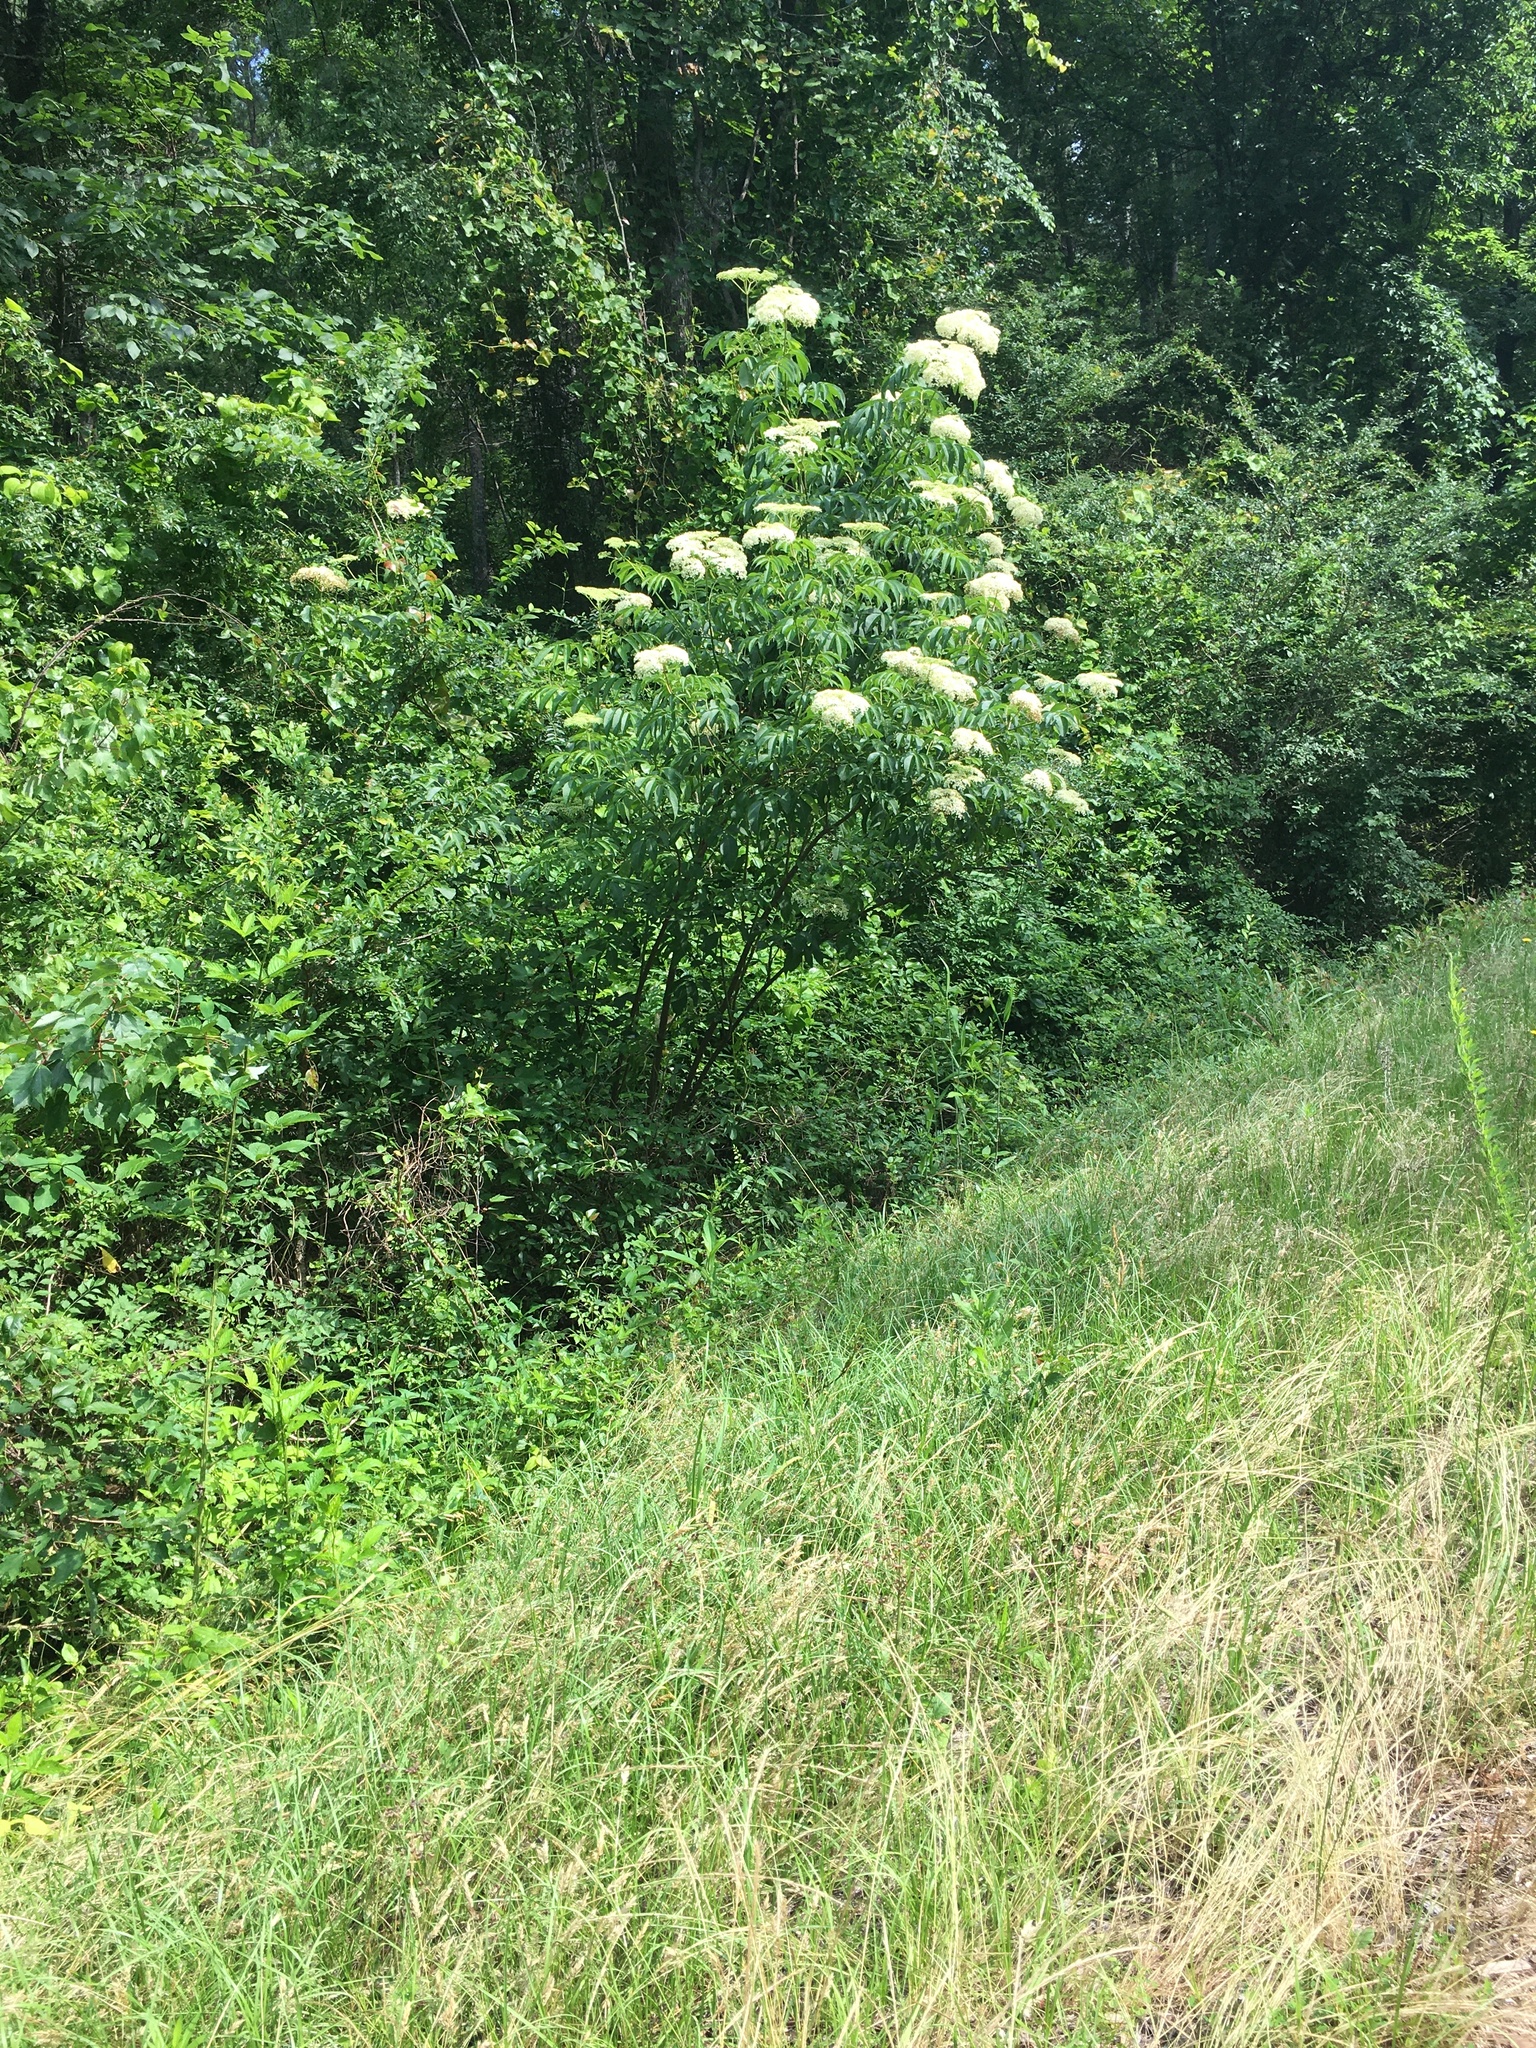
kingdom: Plantae
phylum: Tracheophyta
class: Magnoliopsida
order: Dipsacales
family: Viburnaceae
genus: Sambucus
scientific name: Sambucus canadensis
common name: American elder
